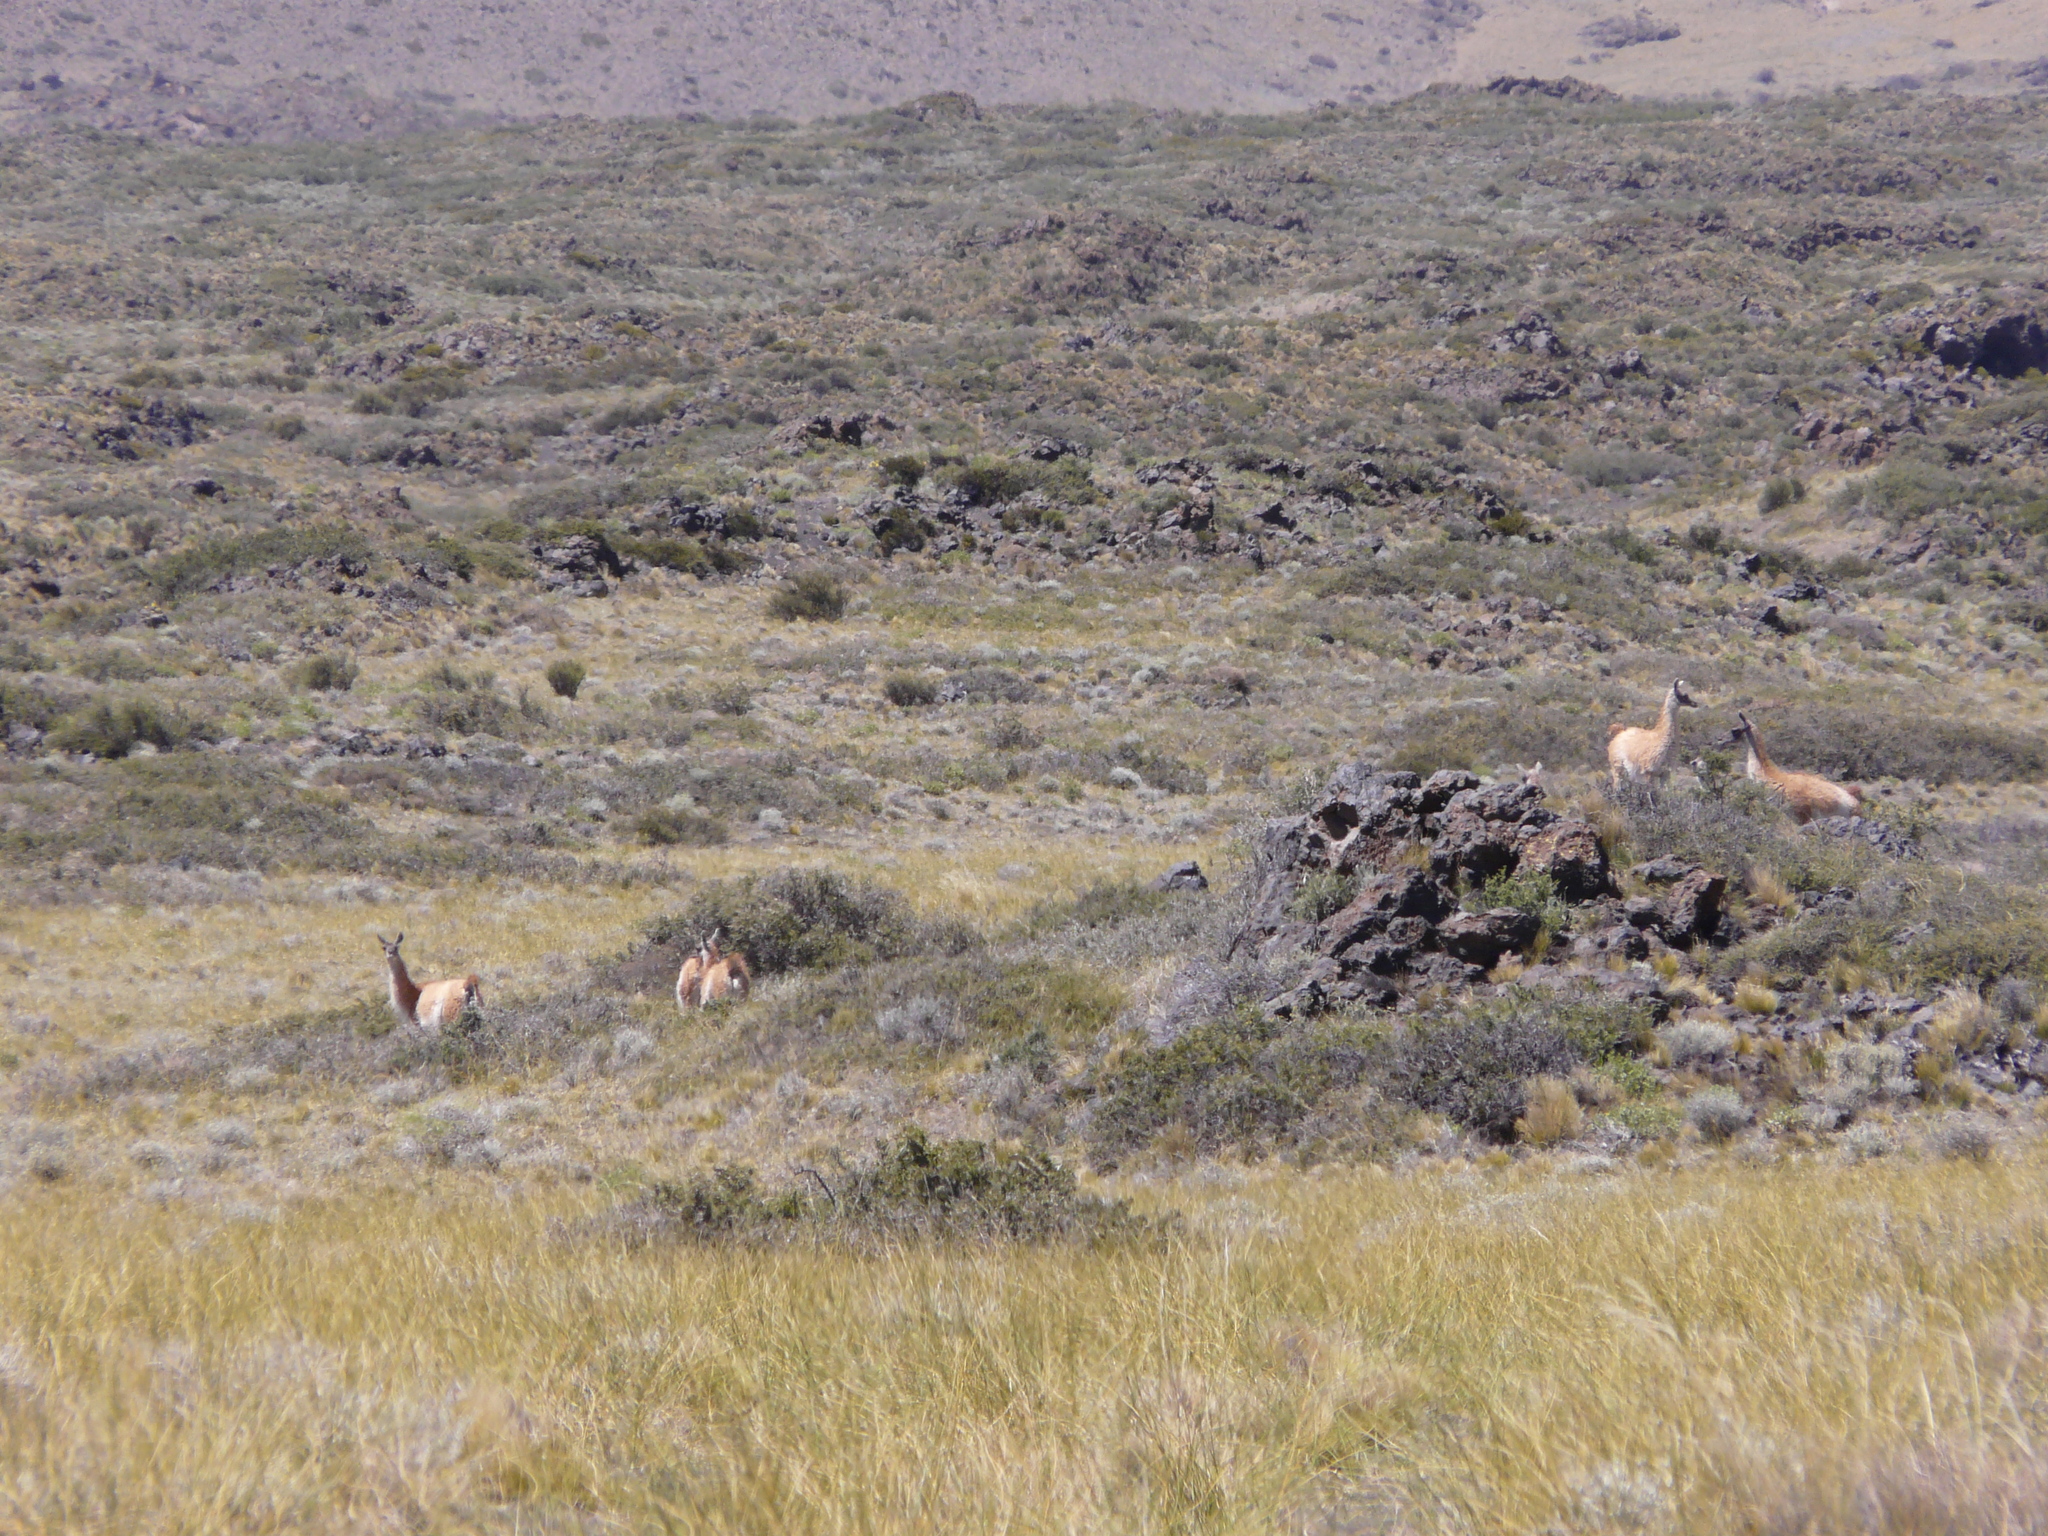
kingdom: Animalia
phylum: Chordata
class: Mammalia
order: Artiodactyla
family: Camelidae
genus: Lama
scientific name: Lama glama
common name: Llama
